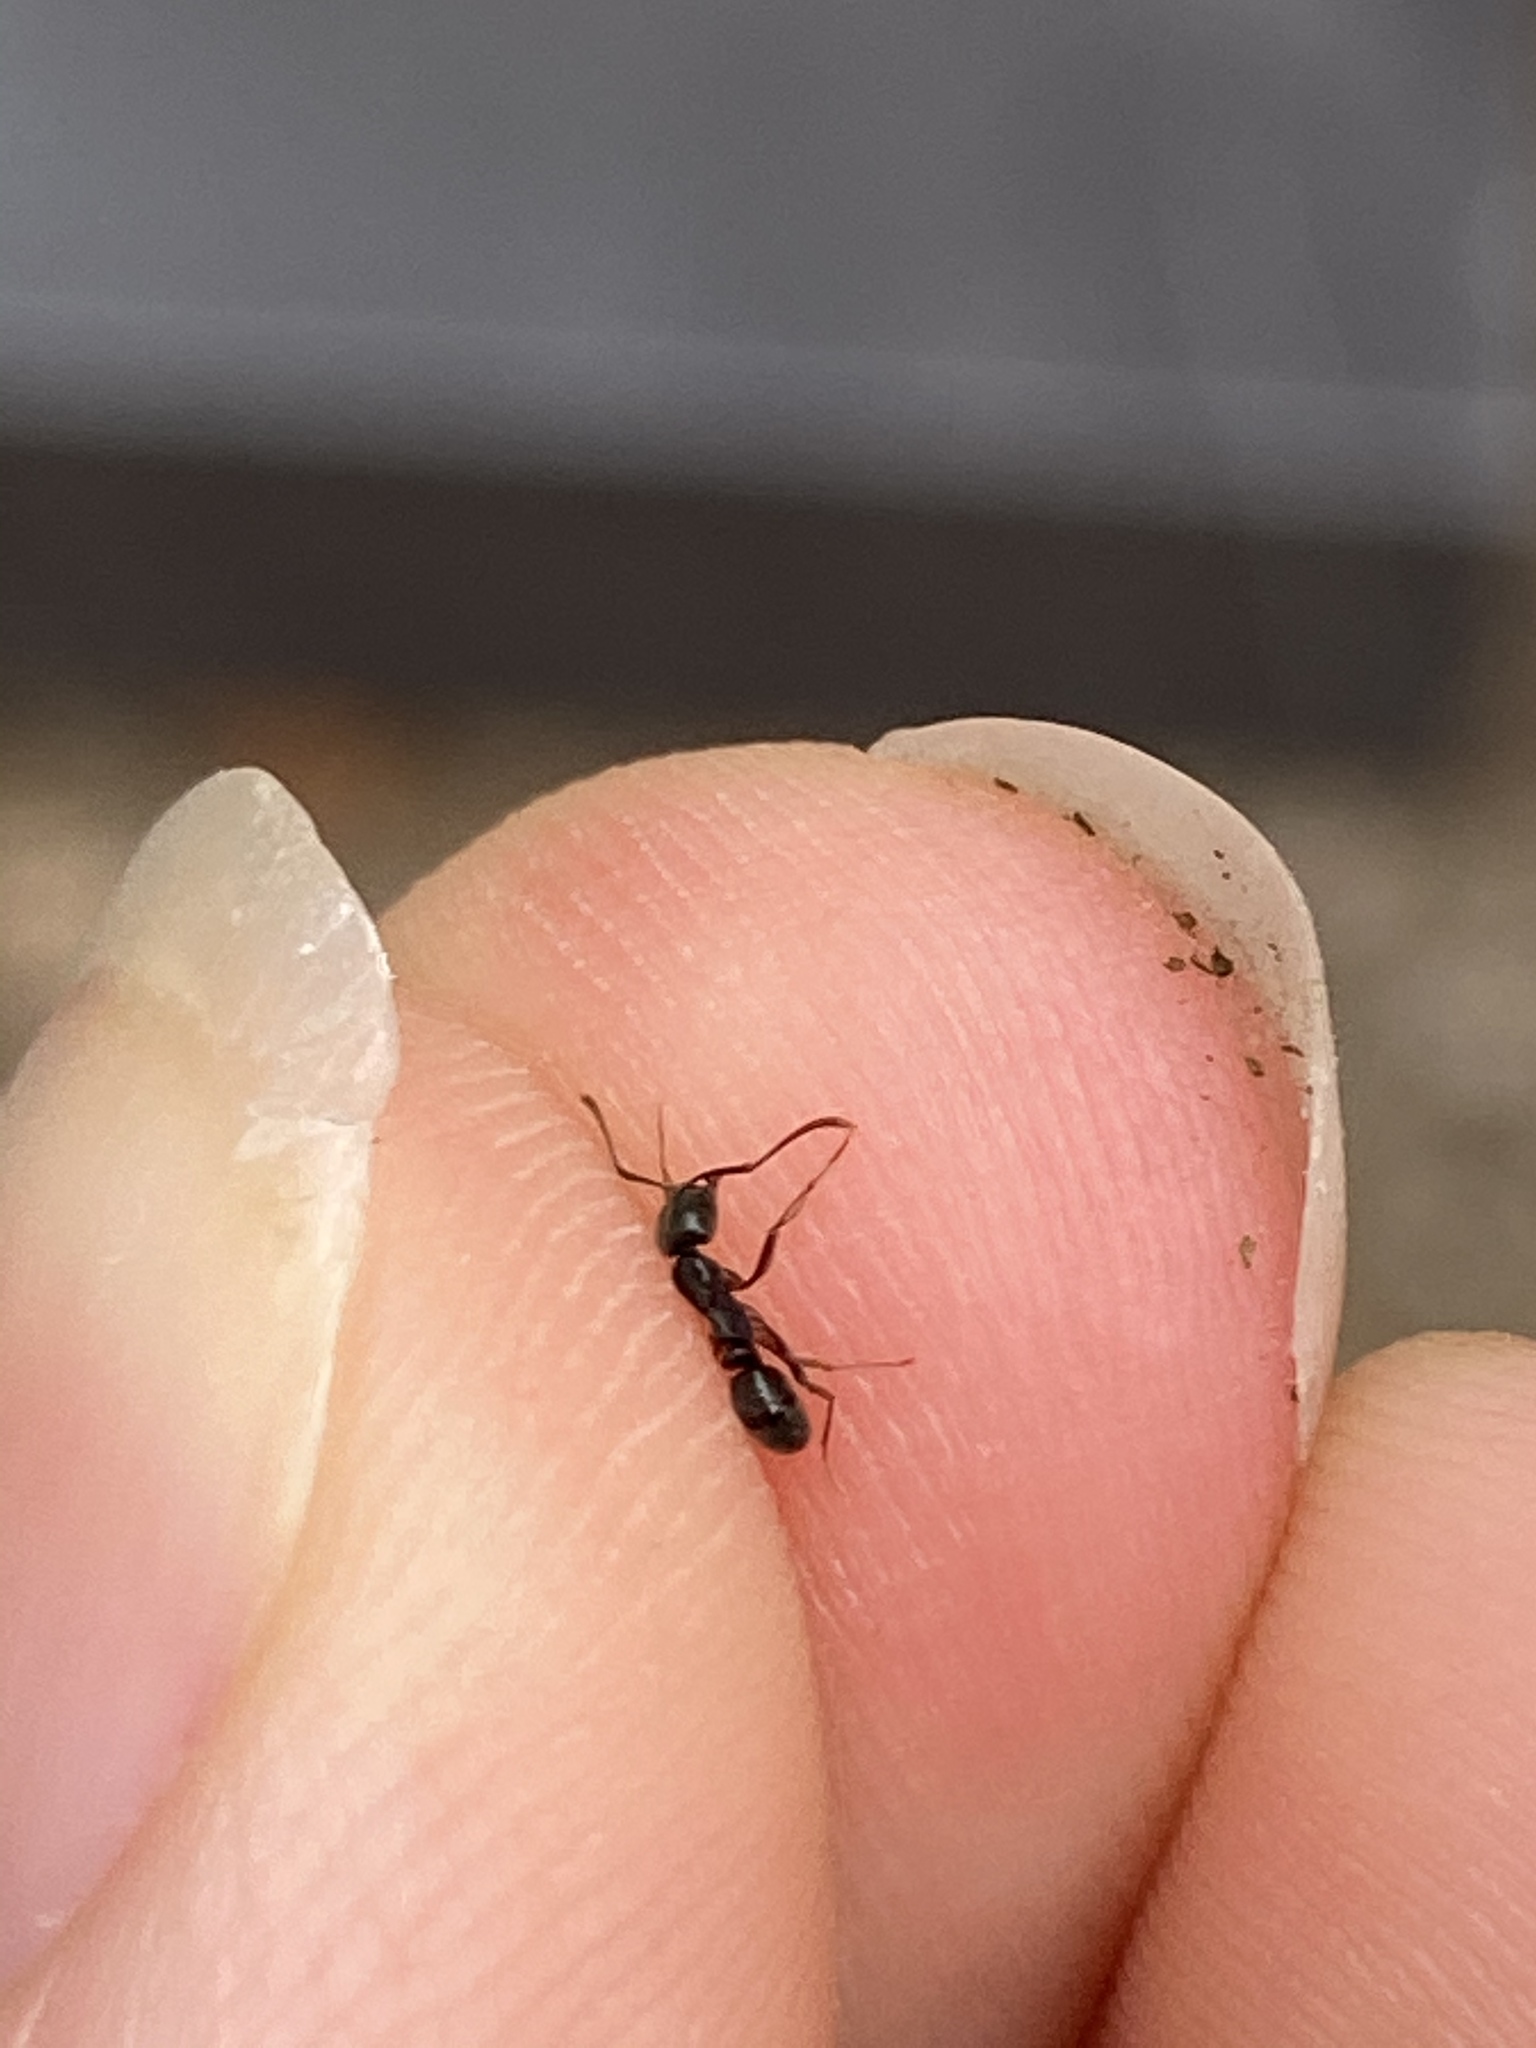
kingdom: Animalia
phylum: Arthropoda
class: Insecta
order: Hymenoptera
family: Formicidae
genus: Pachycondyla
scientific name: Pachycondyla chinensis
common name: Asian needle ant
